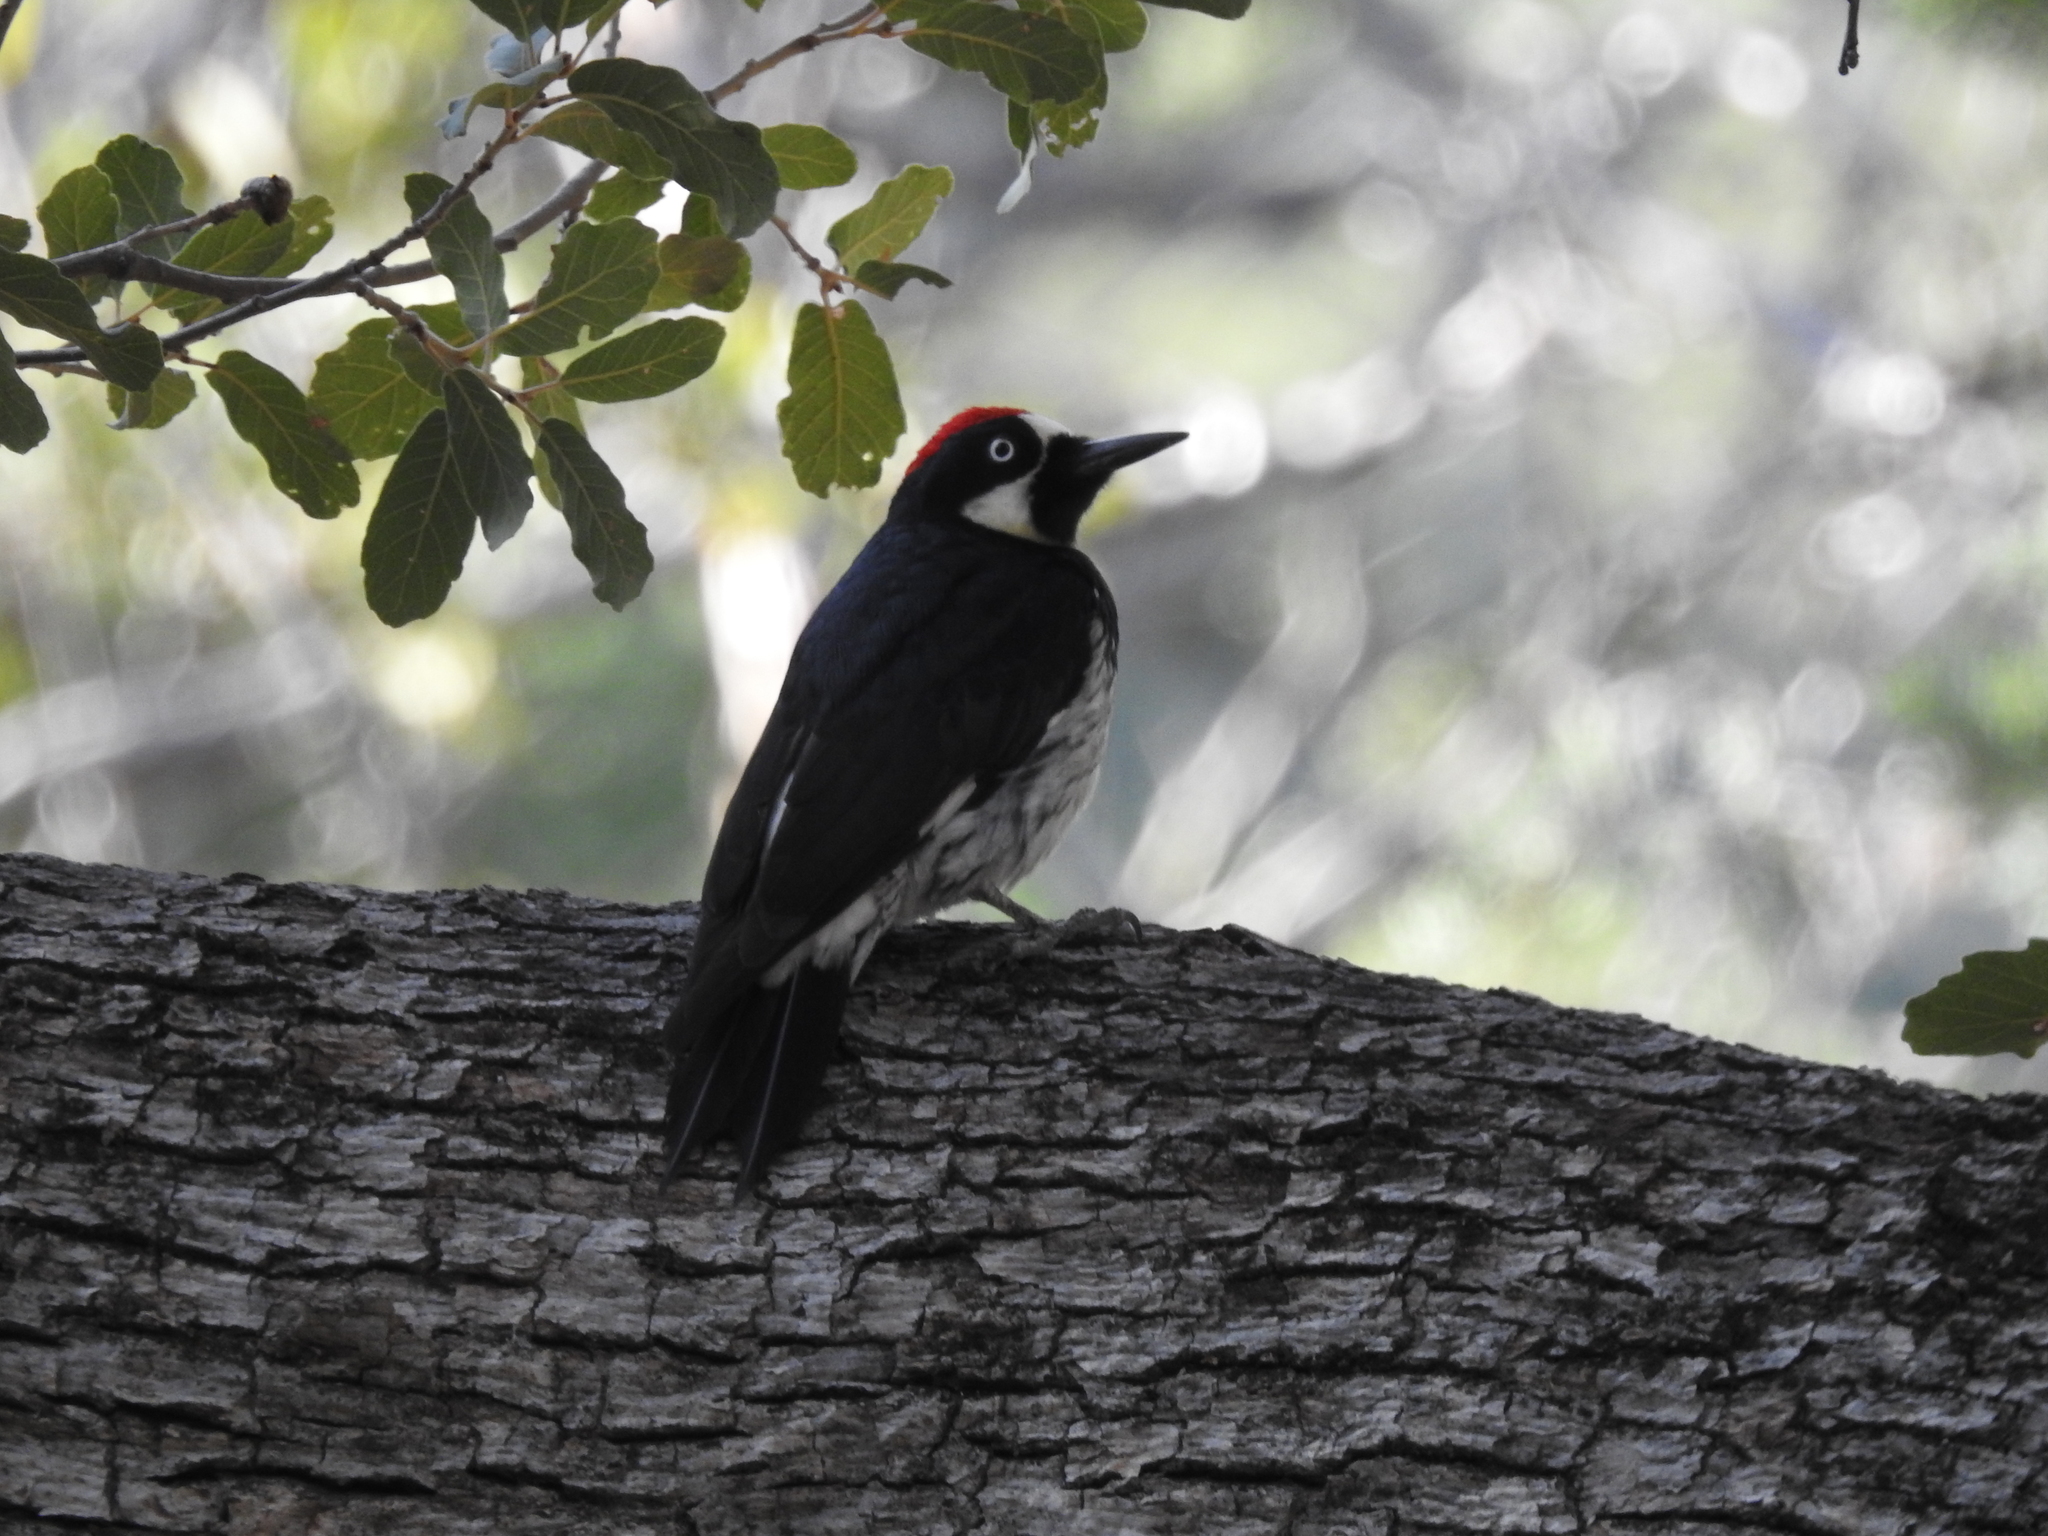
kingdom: Animalia
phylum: Chordata
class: Aves
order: Piciformes
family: Picidae
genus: Melanerpes
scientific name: Melanerpes formicivorus
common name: Acorn woodpecker
